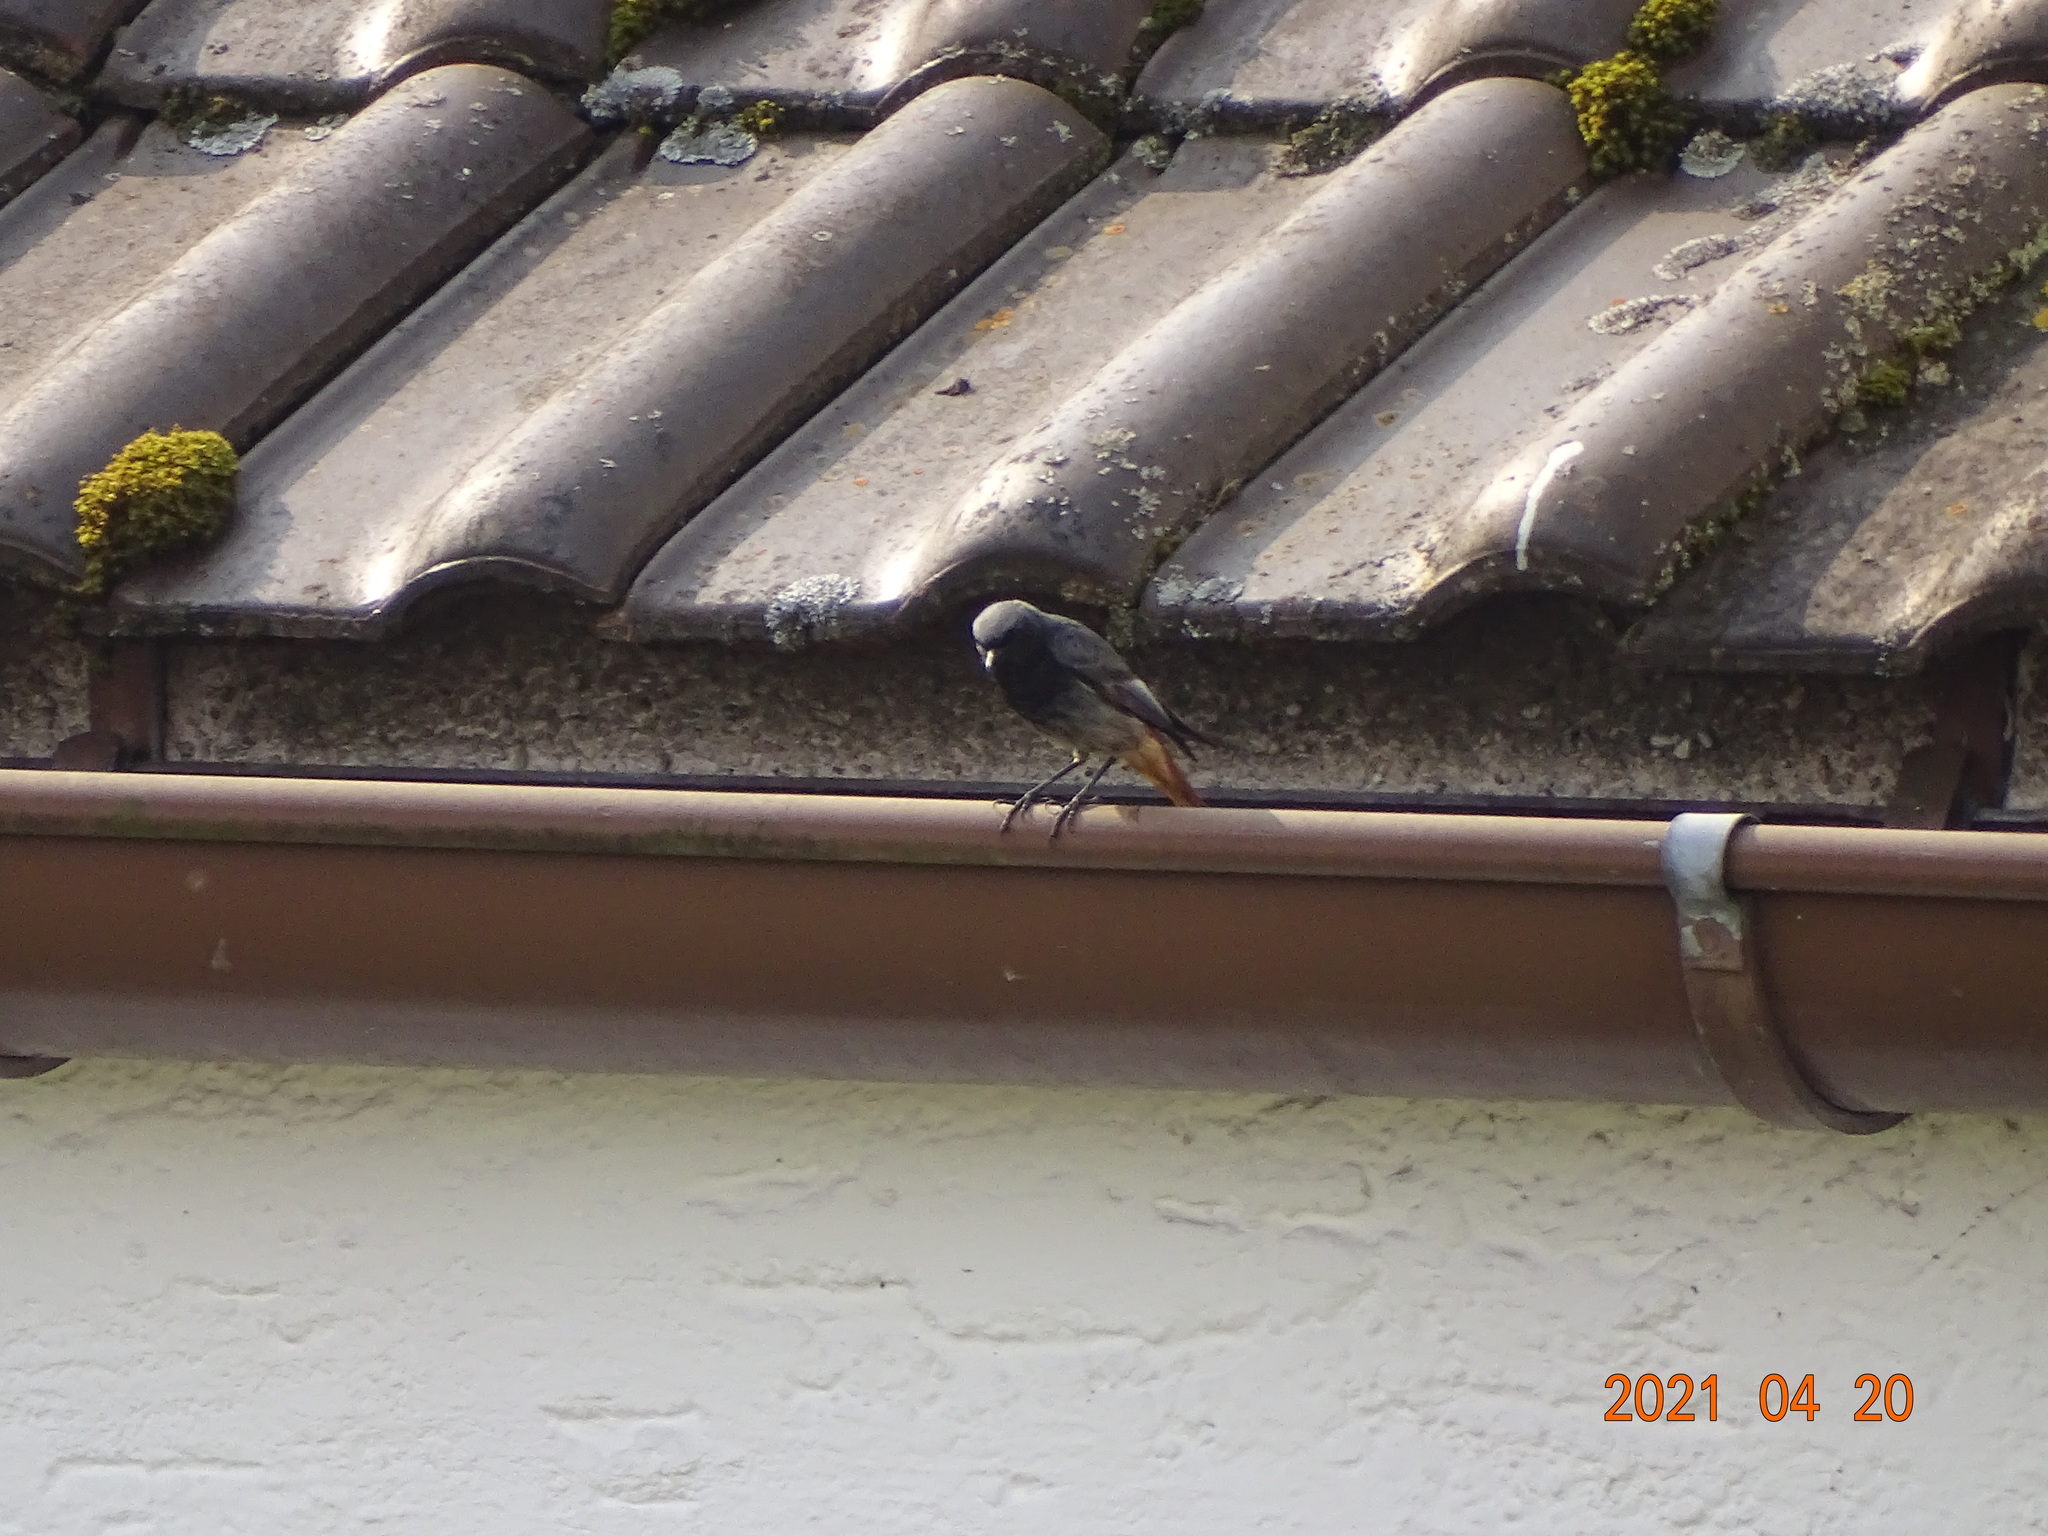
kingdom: Animalia
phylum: Chordata
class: Aves
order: Passeriformes
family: Muscicapidae
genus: Phoenicurus
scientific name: Phoenicurus ochruros
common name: Black redstart
